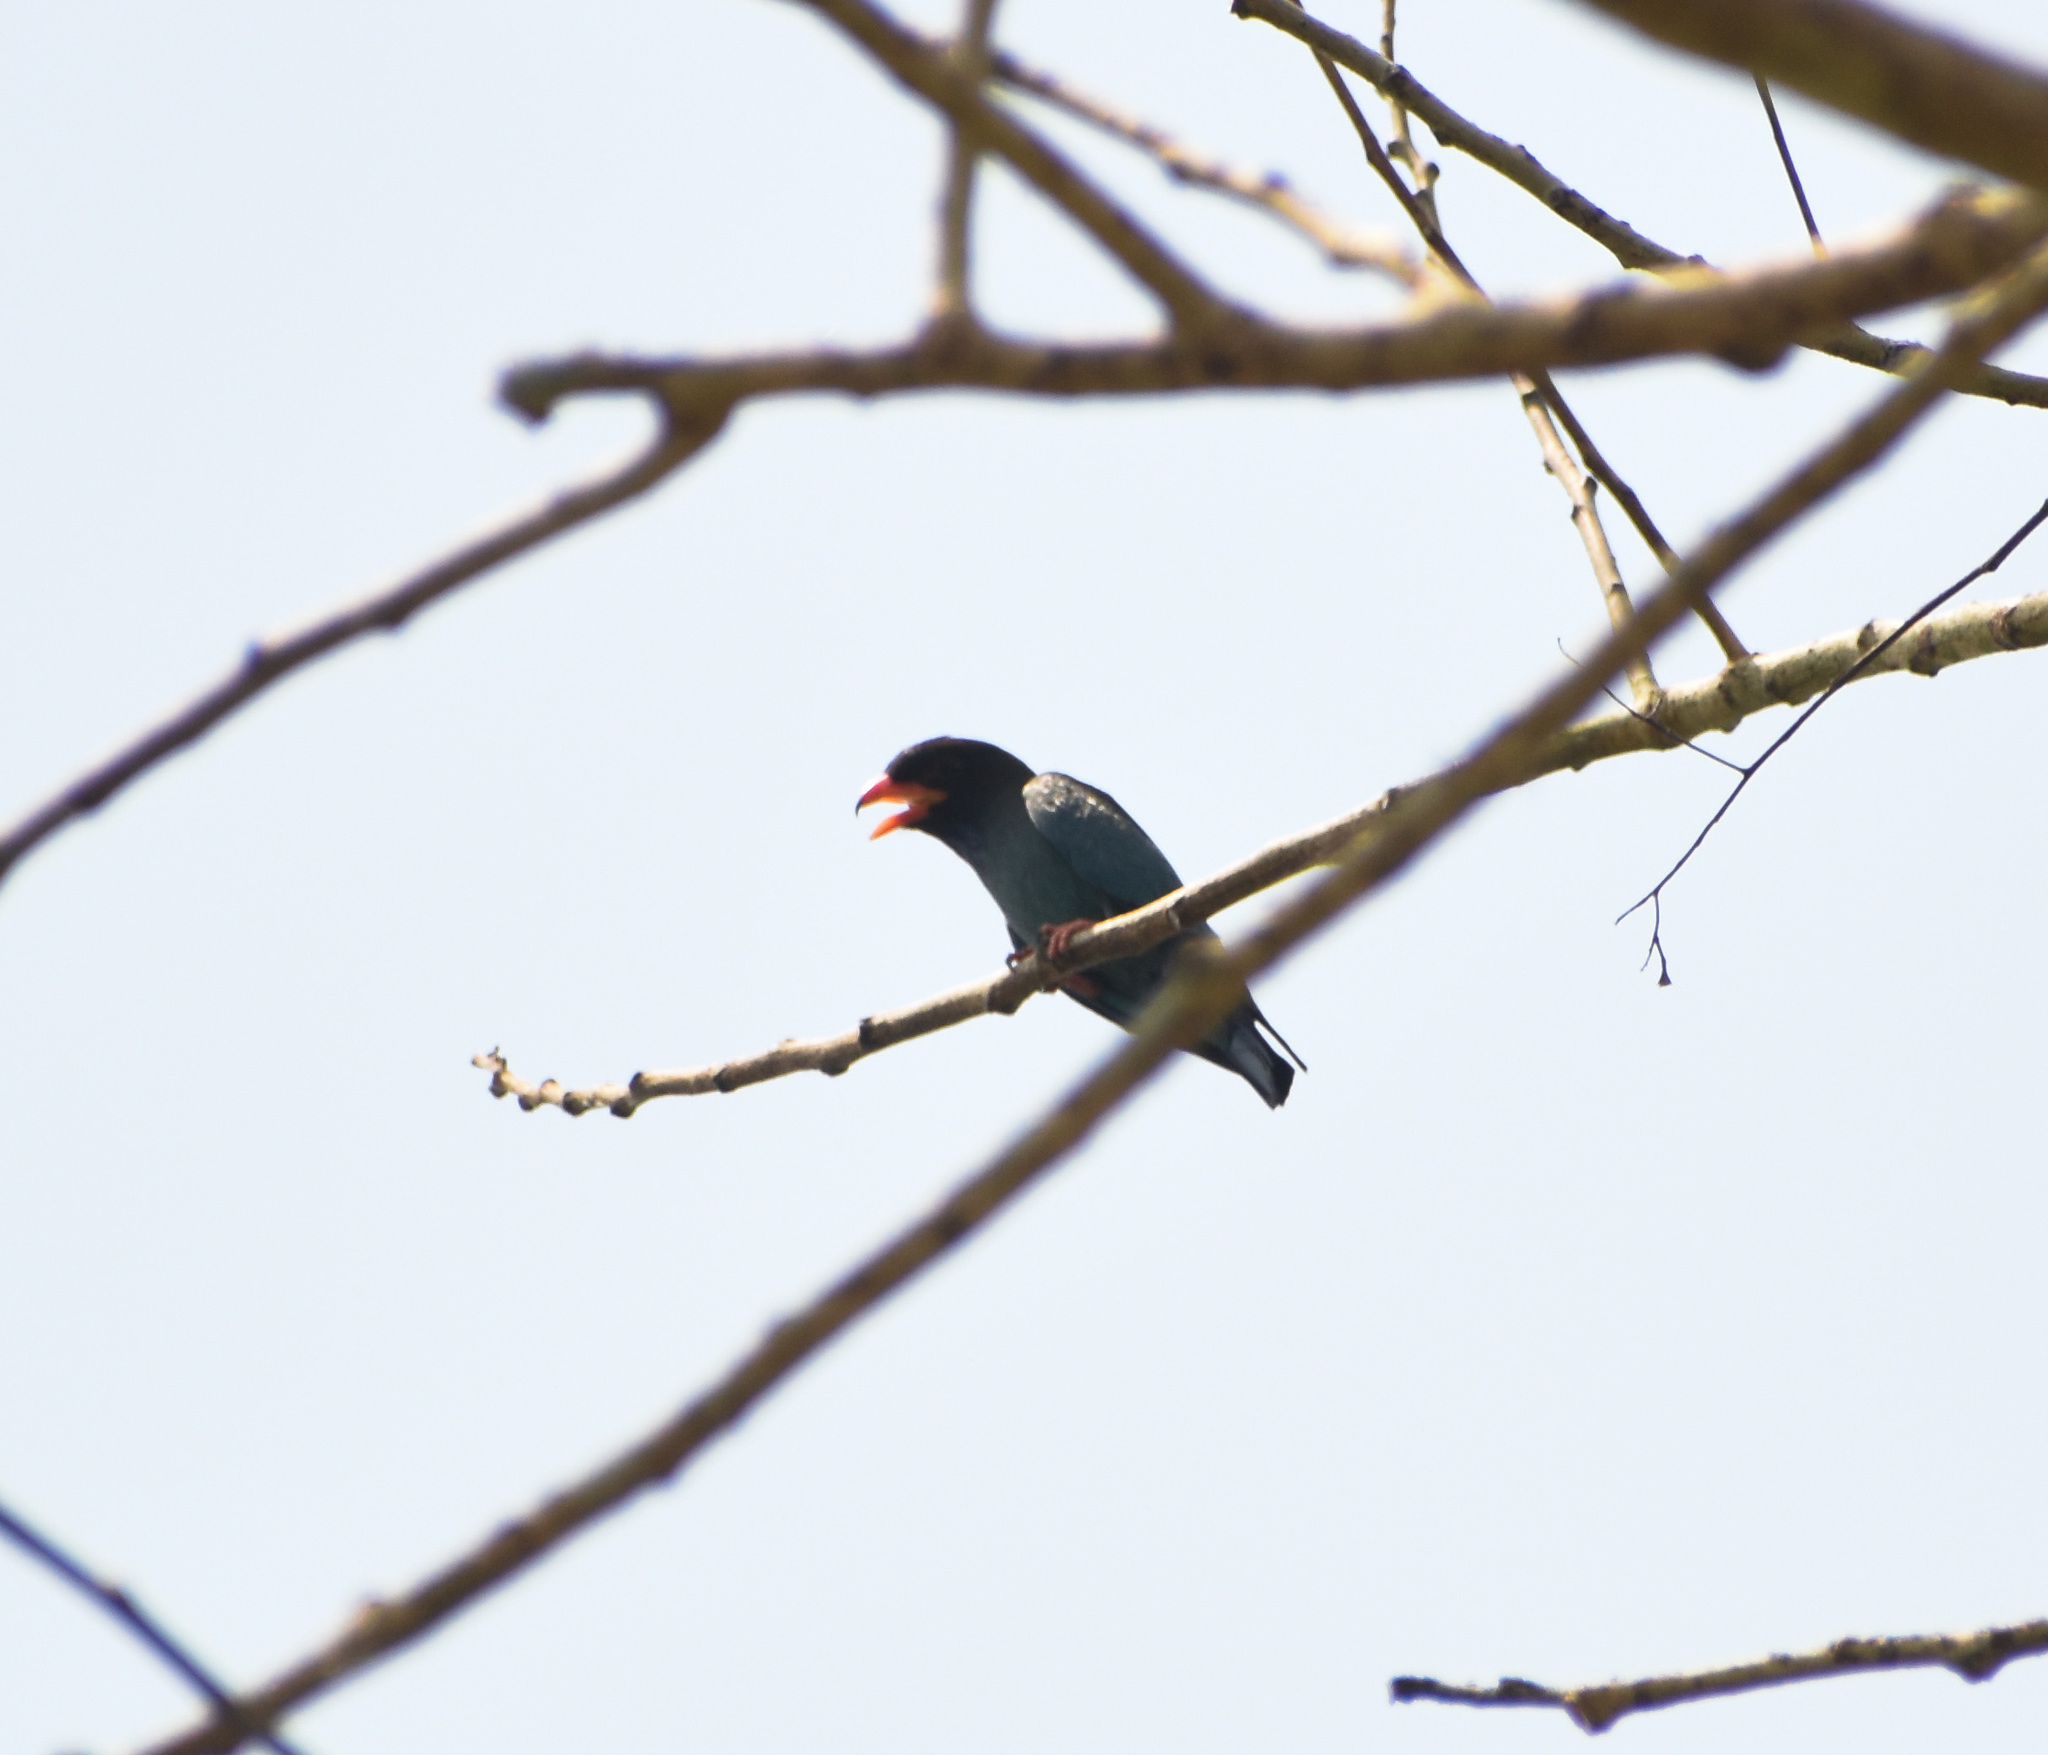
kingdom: Animalia
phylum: Chordata
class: Aves
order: Coraciiformes
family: Coraciidae
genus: Eurystomus
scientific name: Eurystomus orientalis
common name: Oriental dollarbird
